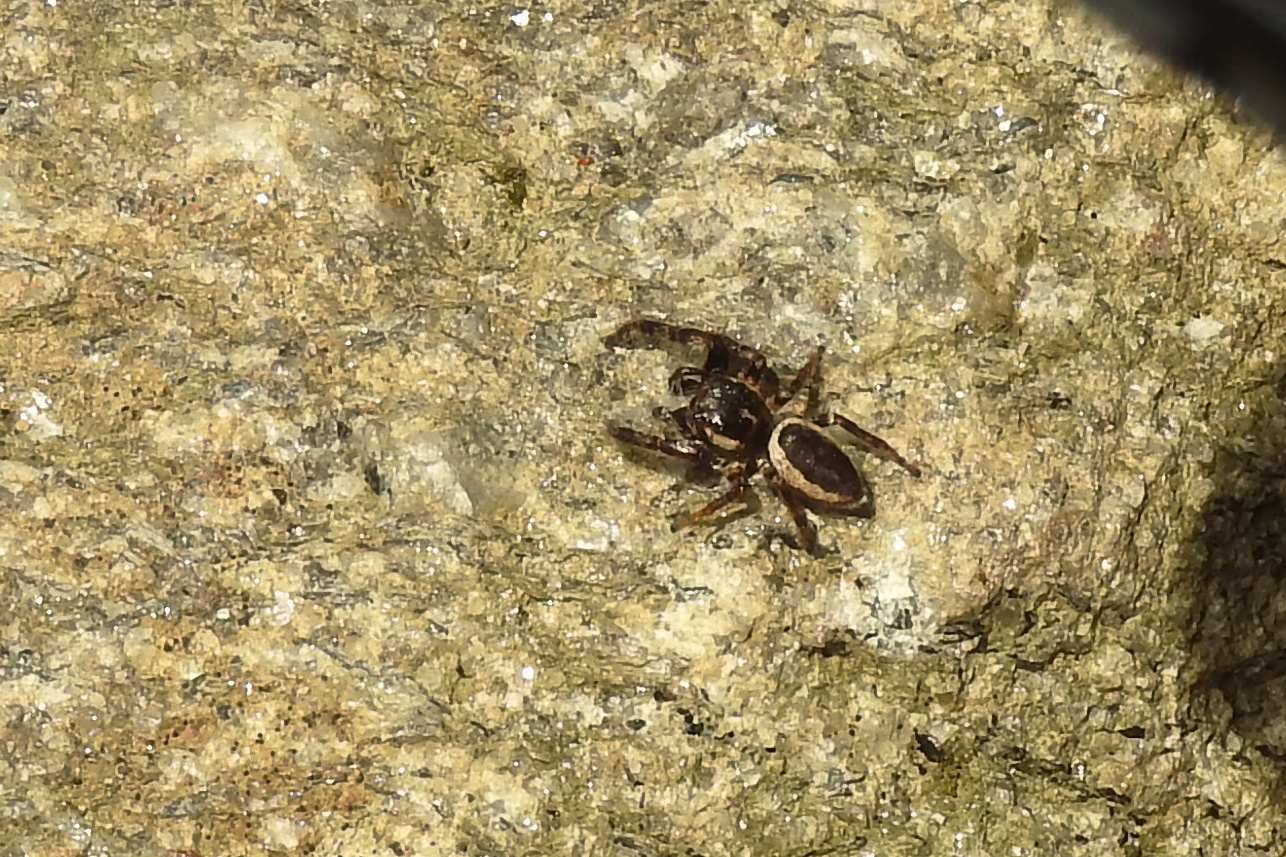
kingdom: Animalia
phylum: Arthropoda
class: Arachnida
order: Araneae
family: Salticidae
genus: Eris
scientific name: Eris militaris
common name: Bronze jumper
